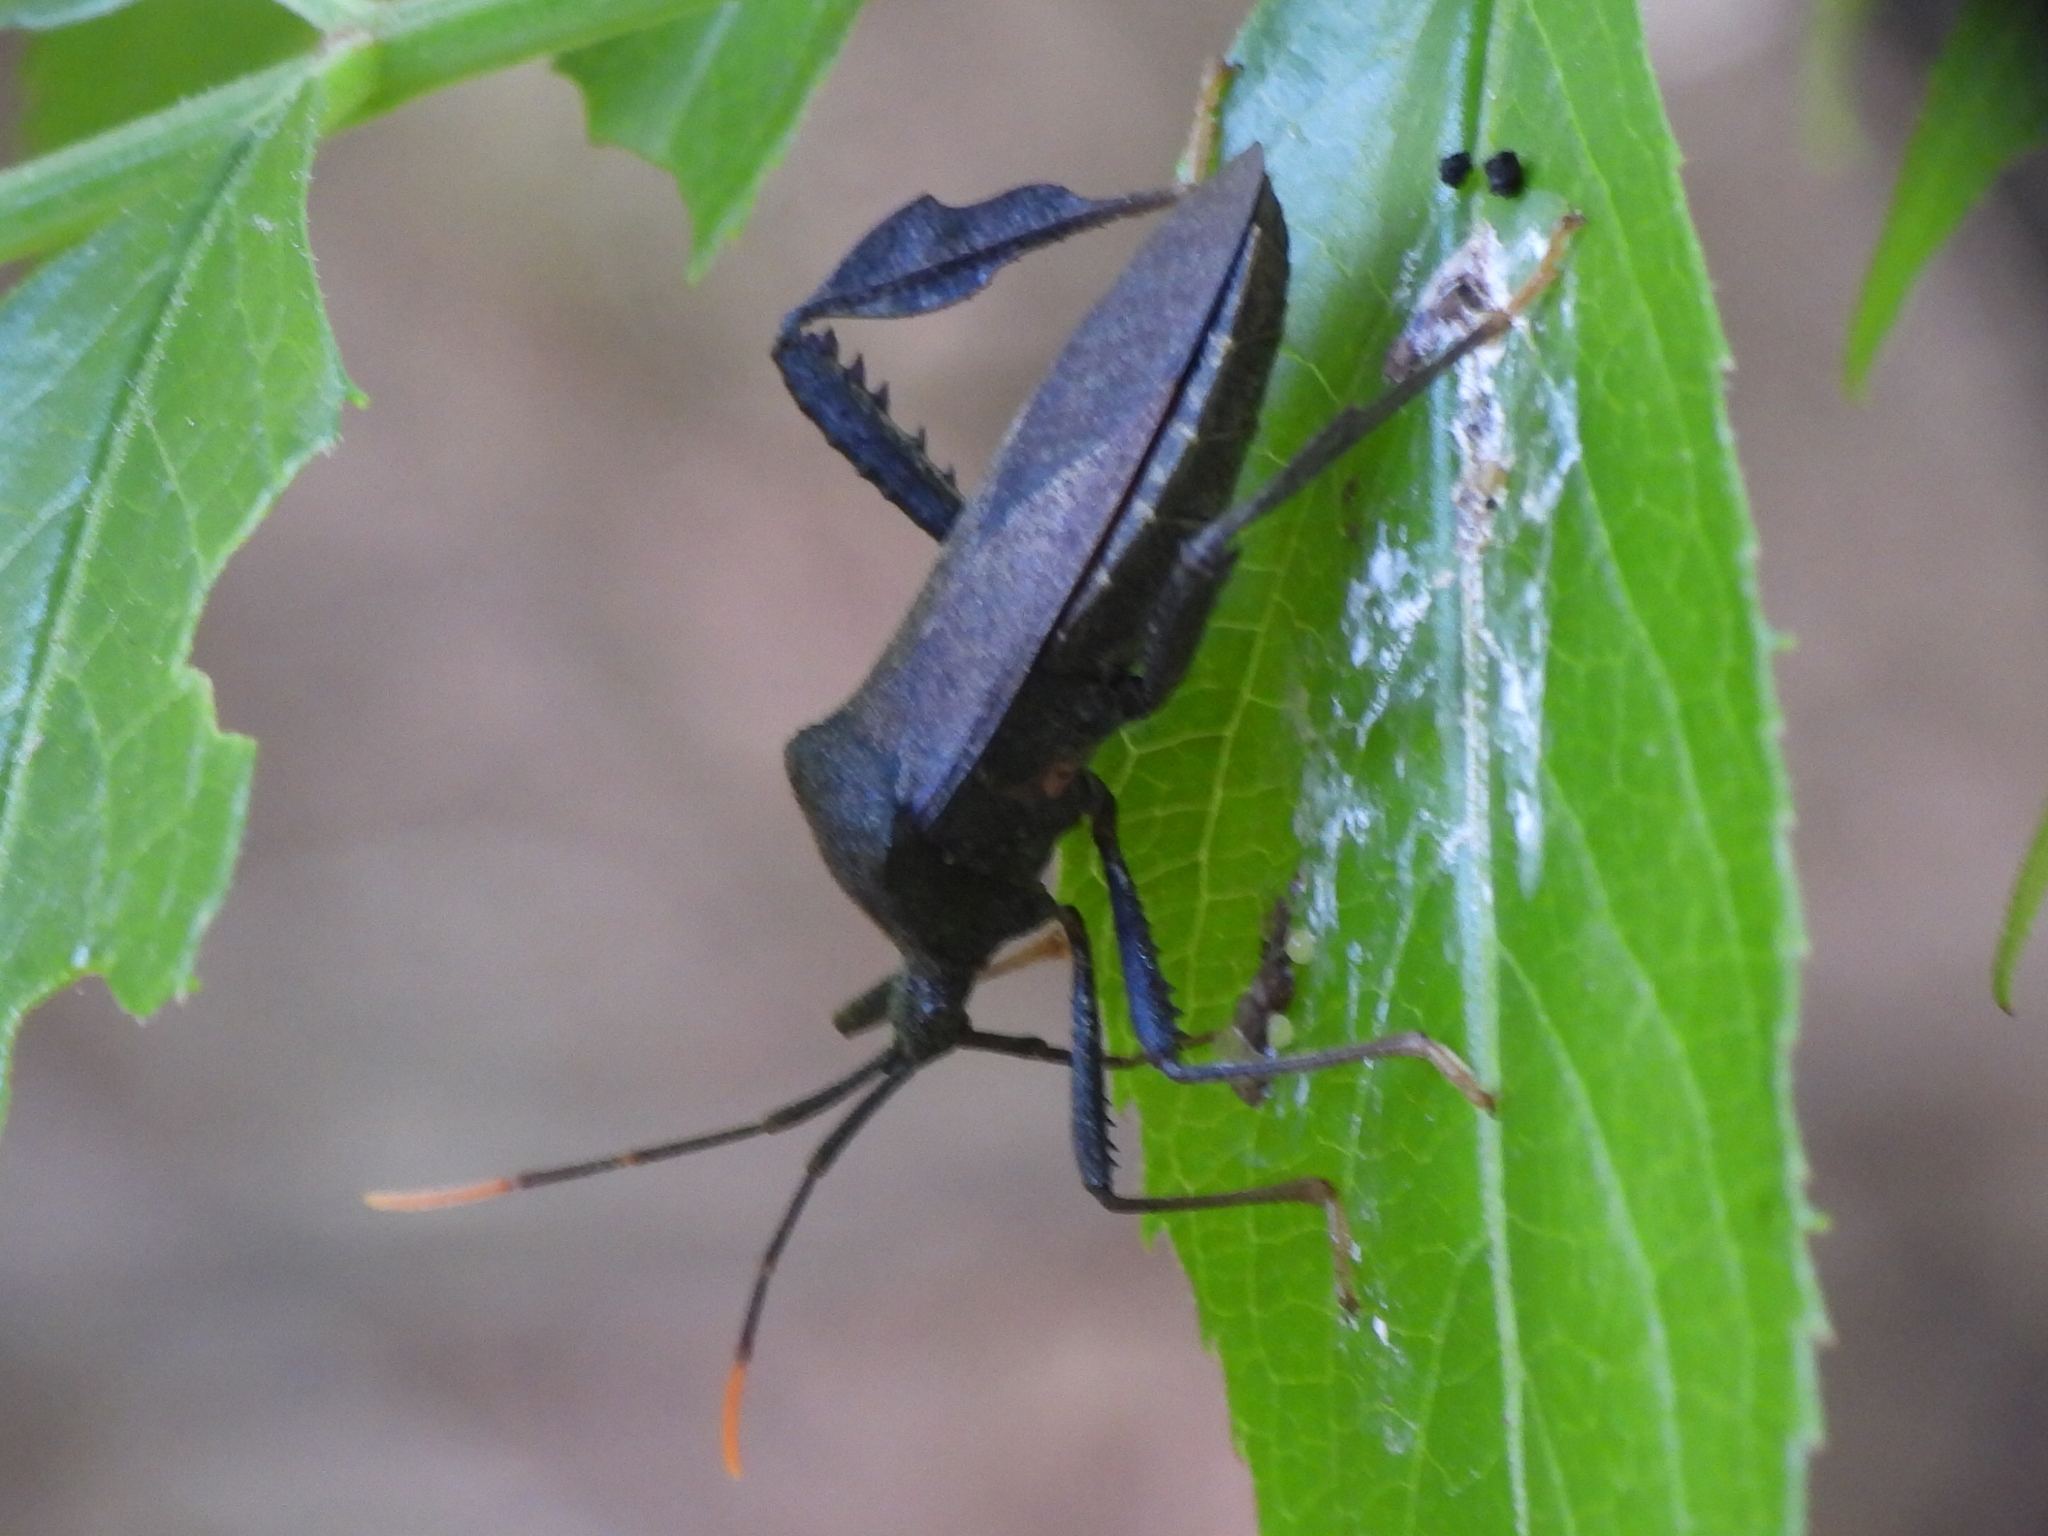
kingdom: Animalia
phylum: Arthropoda
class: Insecta
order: Hemiptera
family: Coreidae
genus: Acanthocephala
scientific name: Acanthocephala terminalis
